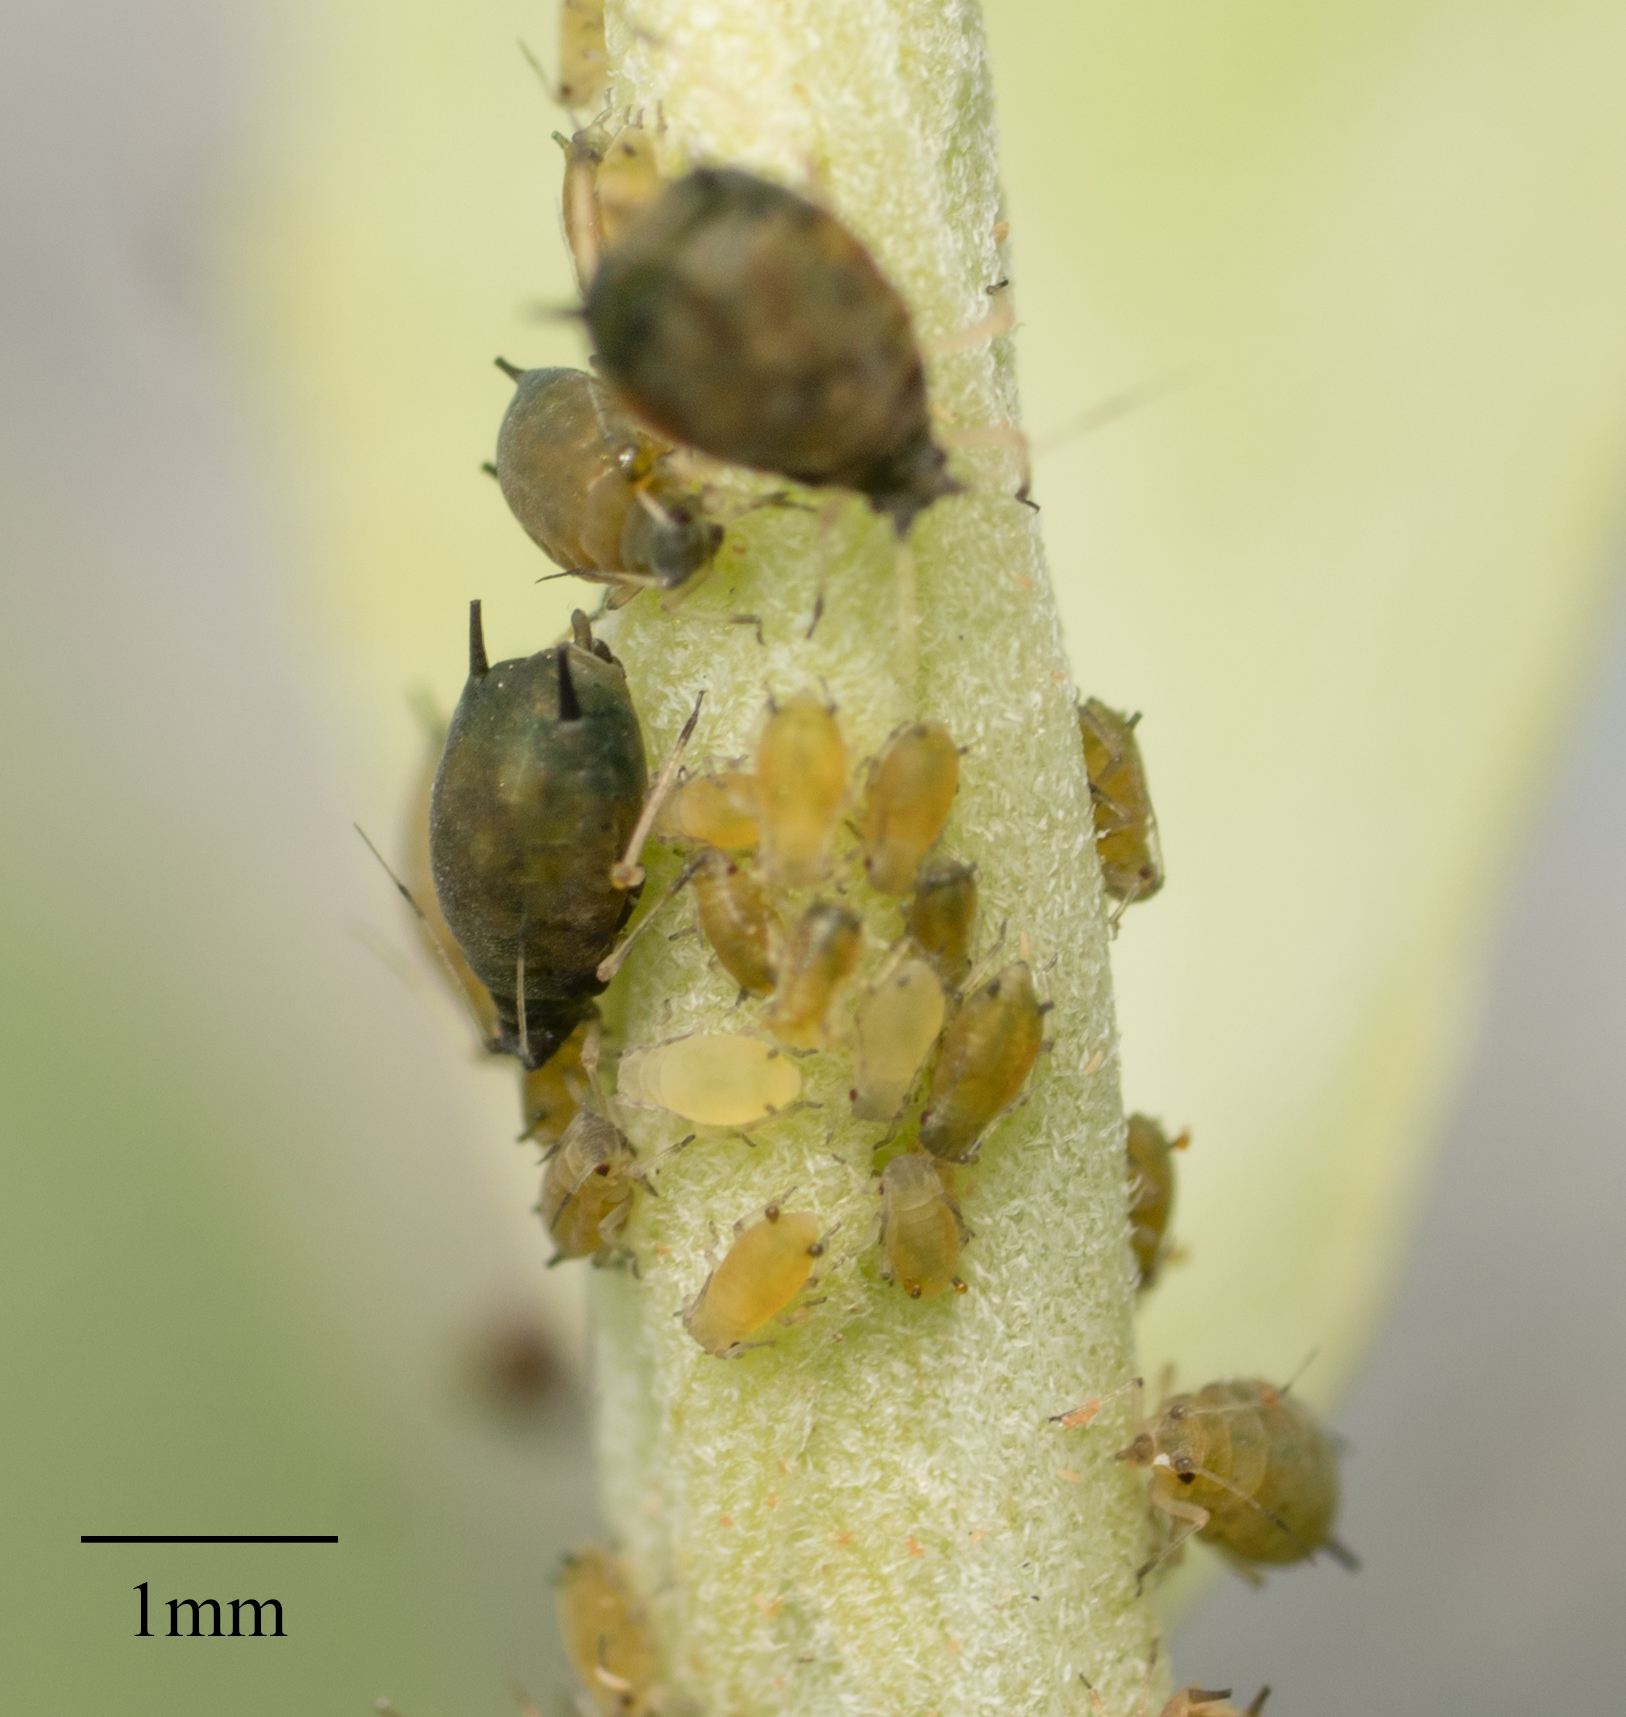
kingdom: Animalia
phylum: Arthropoda
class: Insecta
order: Hemiptera
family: Aphididae
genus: Aphis
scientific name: Aphis gossypii
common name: Melon aphid
